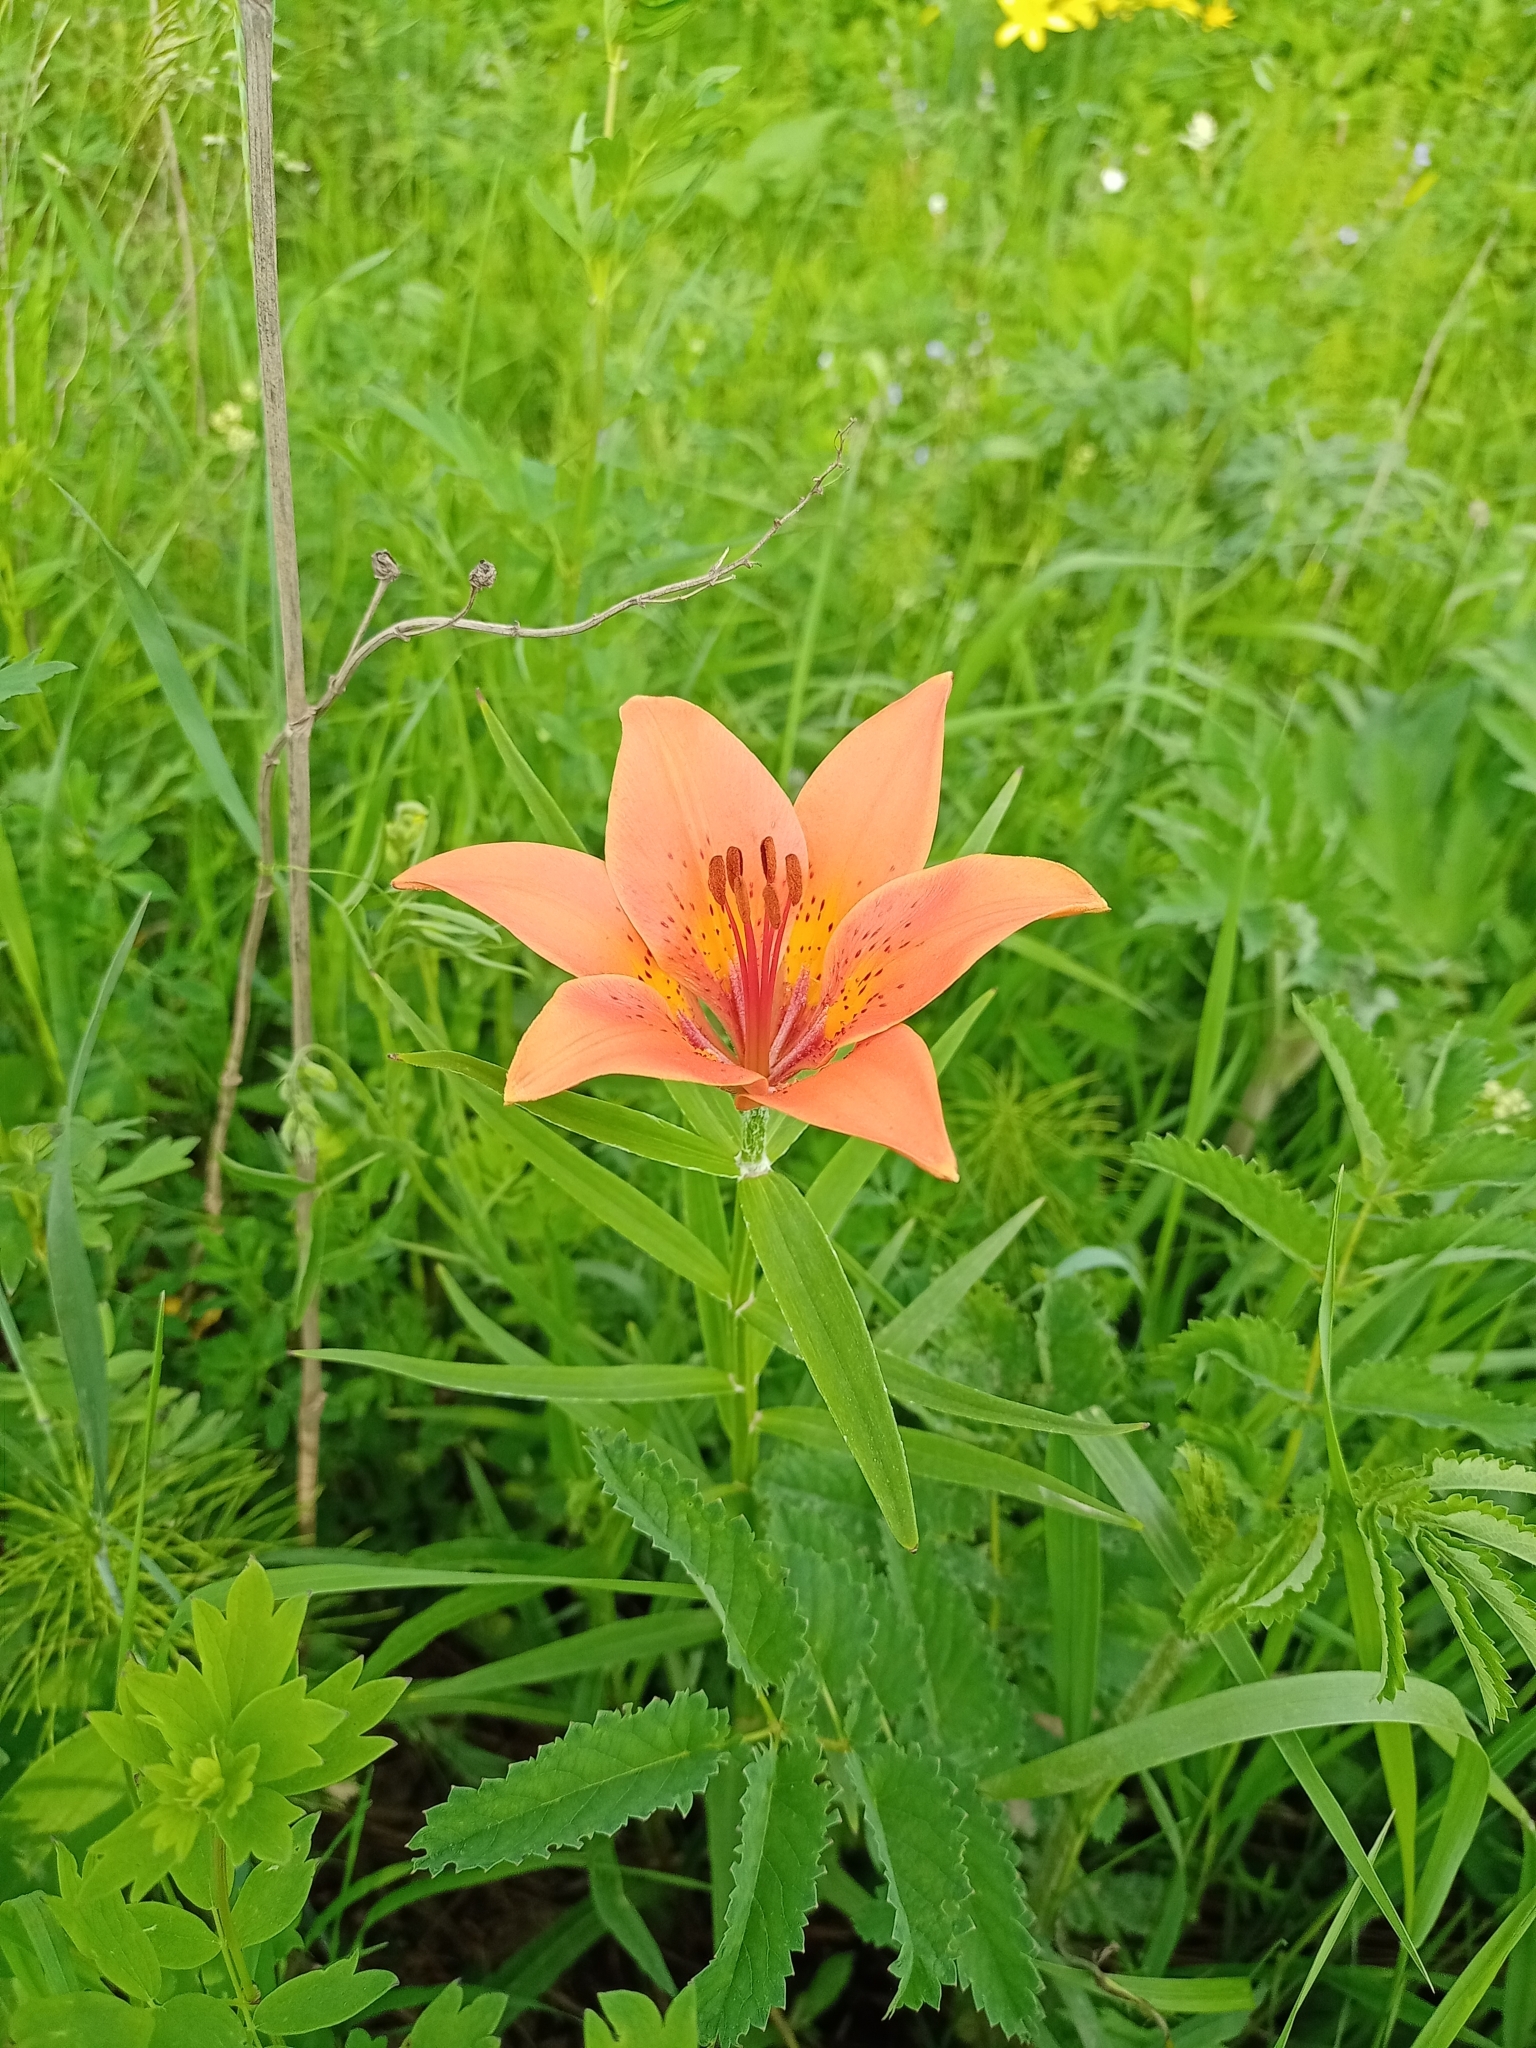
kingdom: Plantae
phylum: Tracheophyta
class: Liliopsida
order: Liliales
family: Liliaceae
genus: Lilium
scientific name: Lilium pensylvanicum
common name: Candlestick lily
